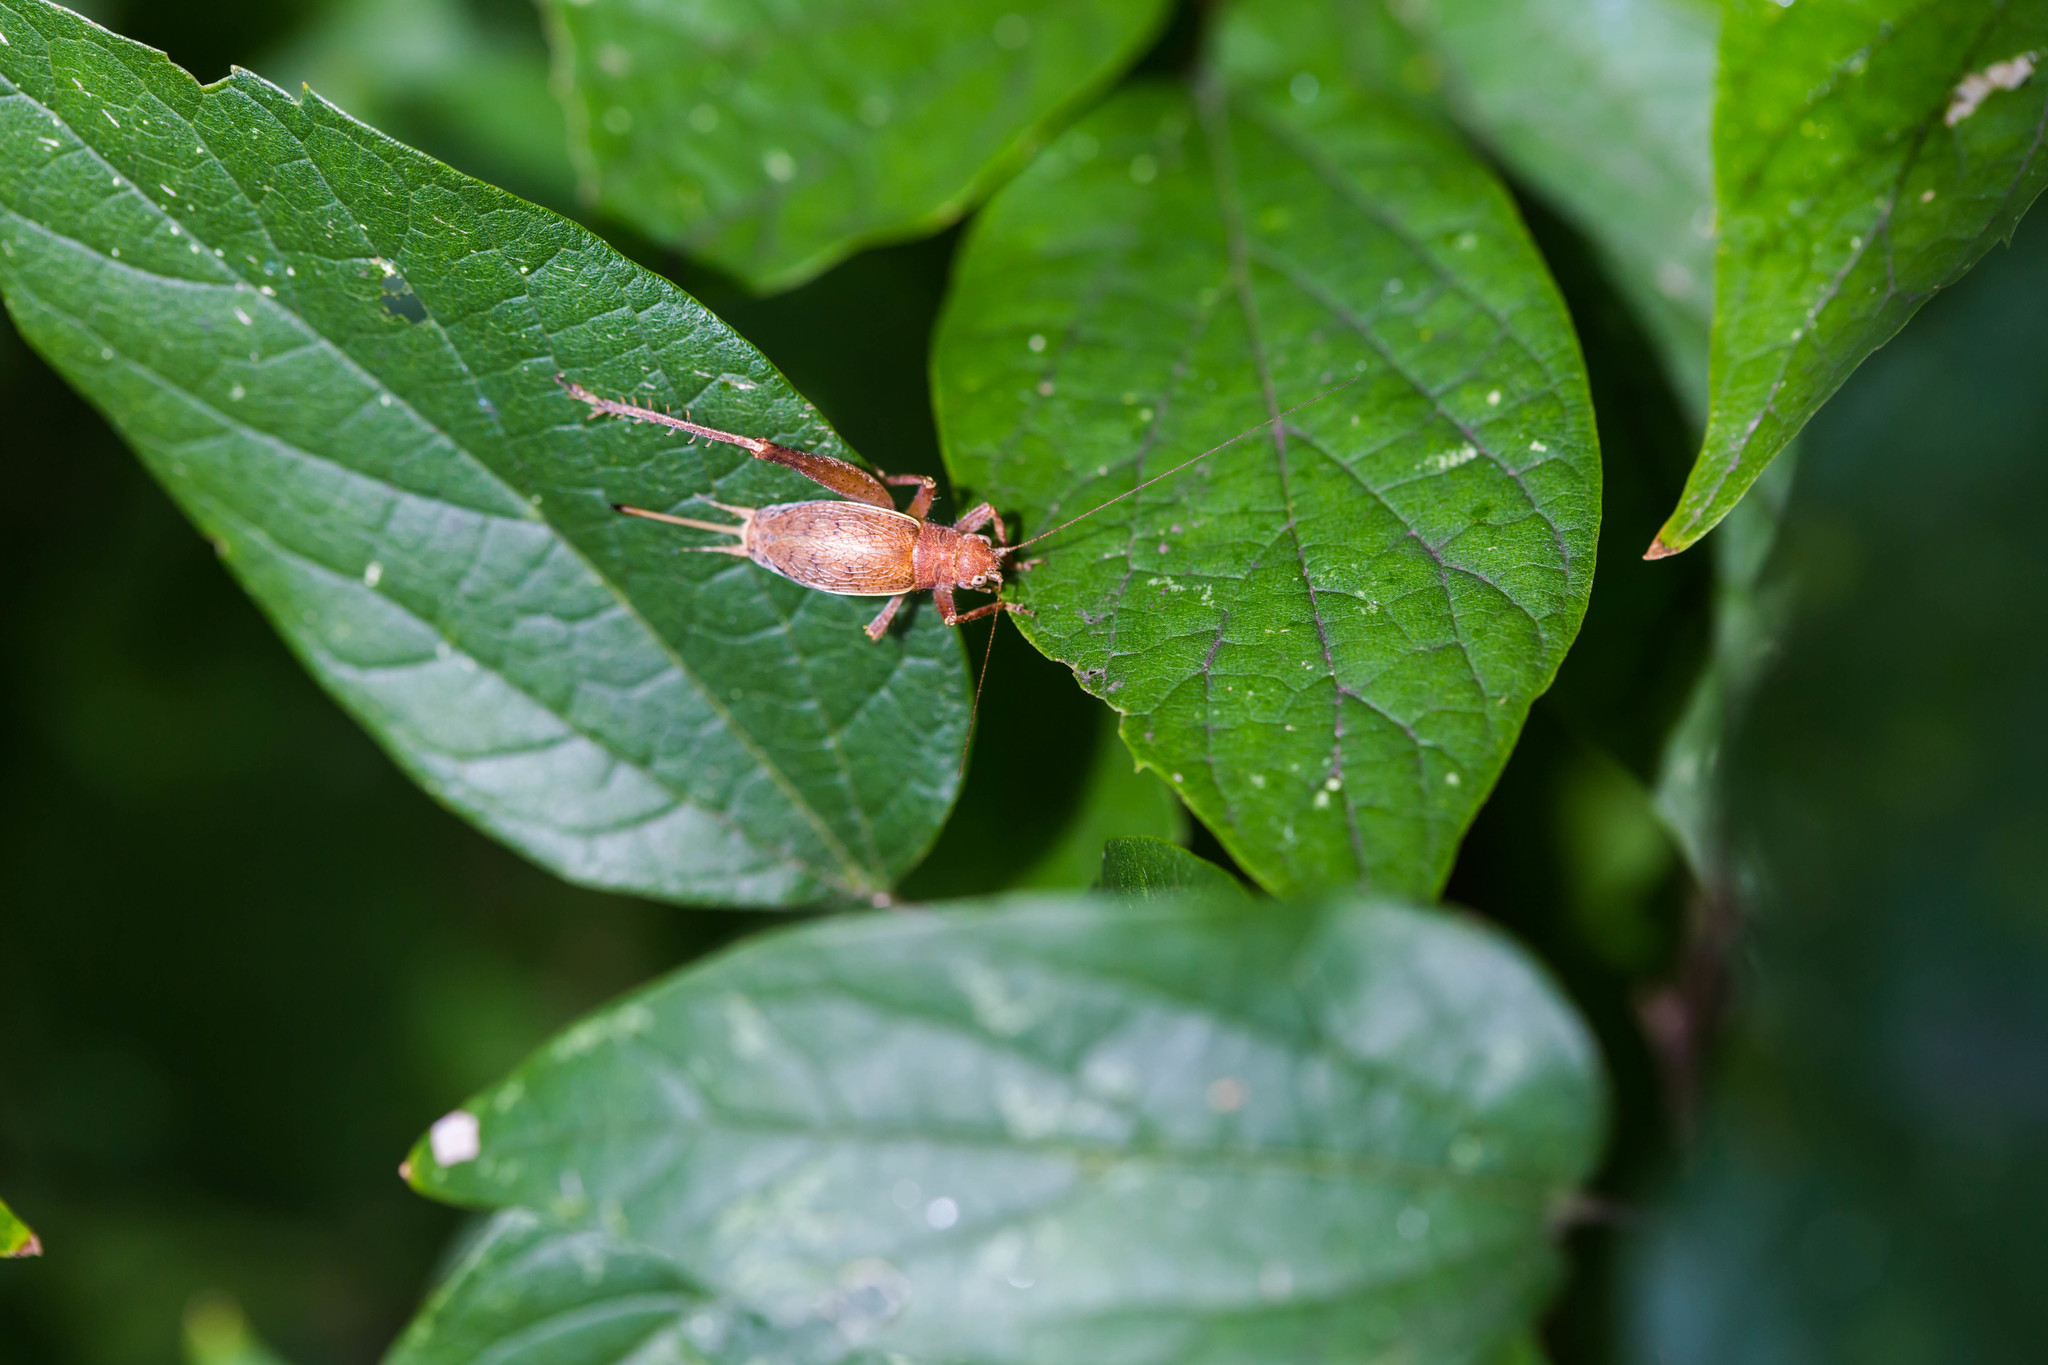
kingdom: Animalia
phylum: Arthropoda
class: Insecta
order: Orthoptera
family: Gryllidae
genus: Hapithus
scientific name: Hapithus agitator
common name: Restless bush cricket
